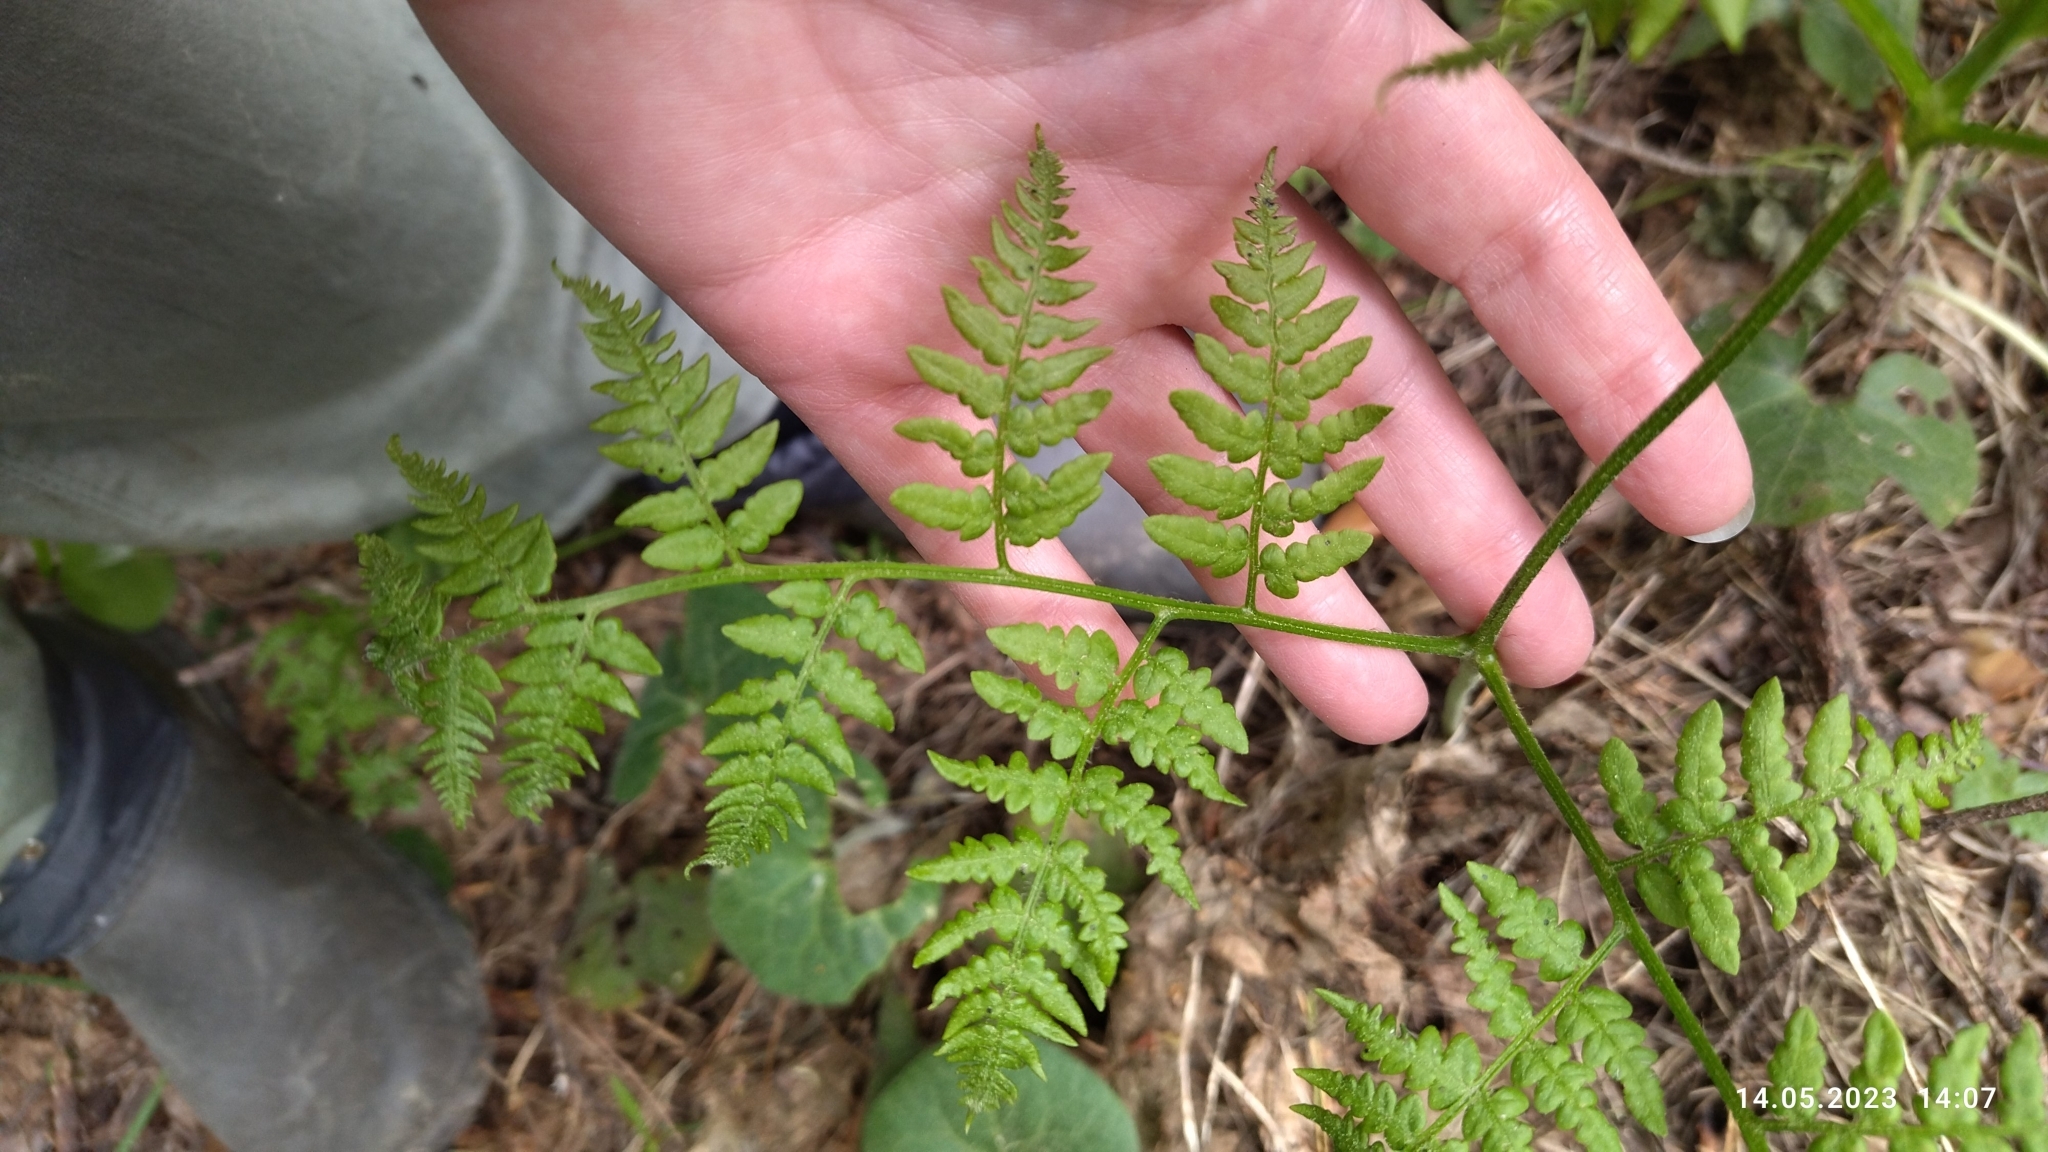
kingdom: Plantae
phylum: Tracheophyta
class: Polypodiopsida
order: Polypodiales
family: Dennstaedtiaceae
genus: Pteridium
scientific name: Pteridium aquilinum
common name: Bracken
